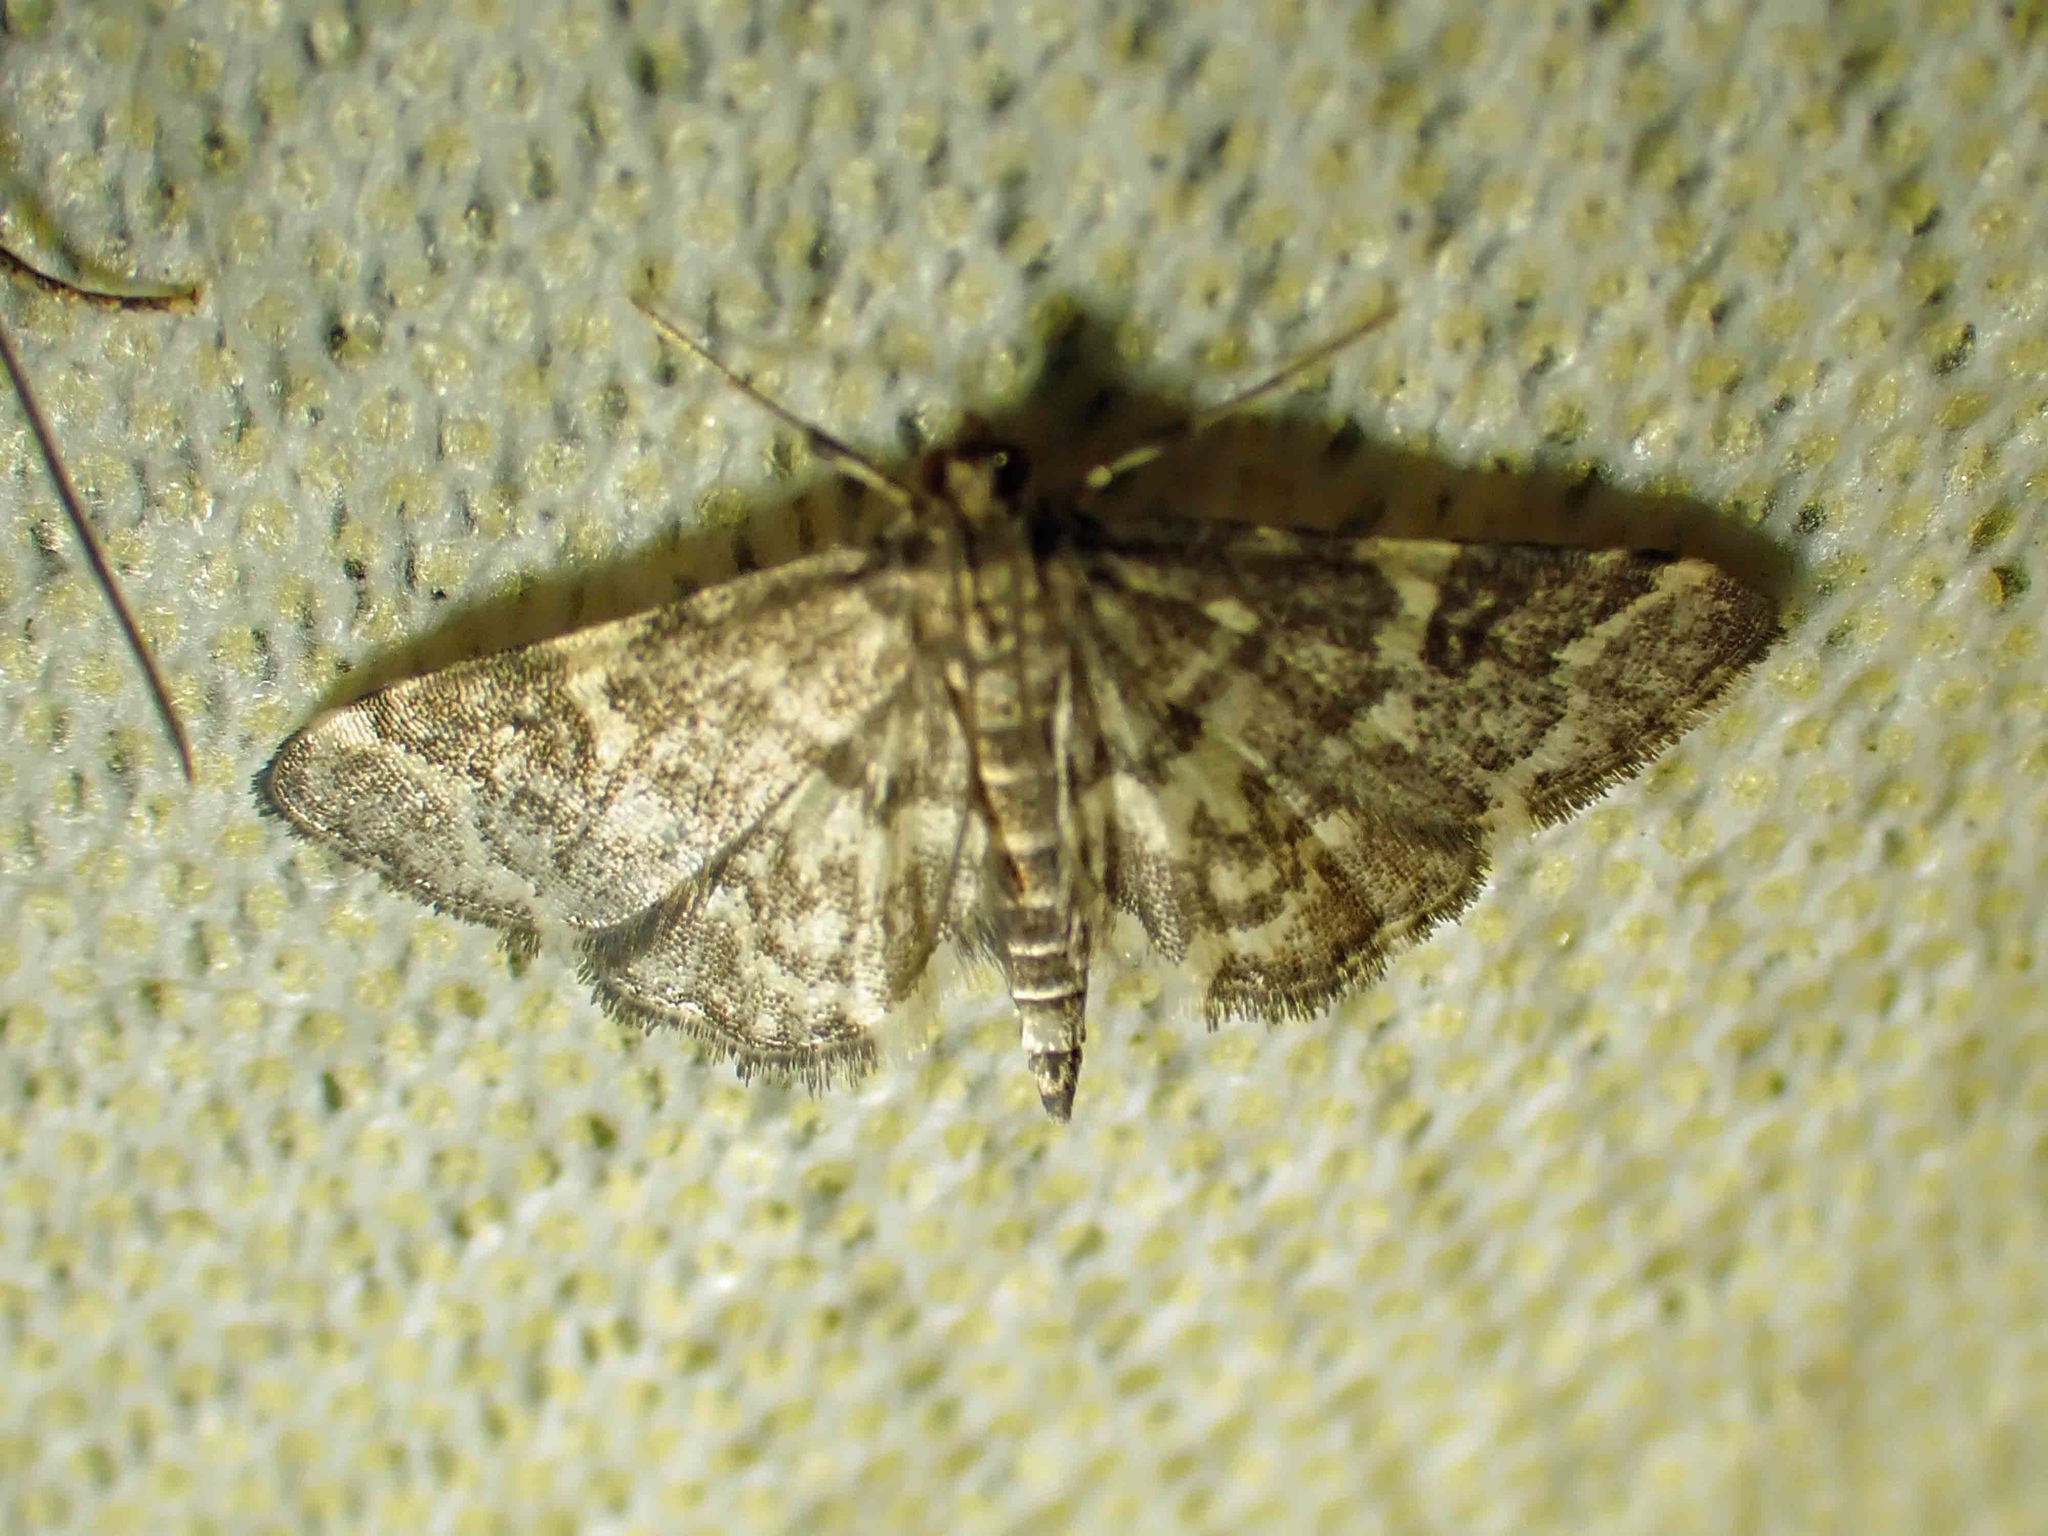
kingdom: Animalia
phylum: Arthropoda
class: Insecta
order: Lepidoptera
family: Crambidae
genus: Anageshna
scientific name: Anageshna primordialis
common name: Yellow-spotted webworm moth
